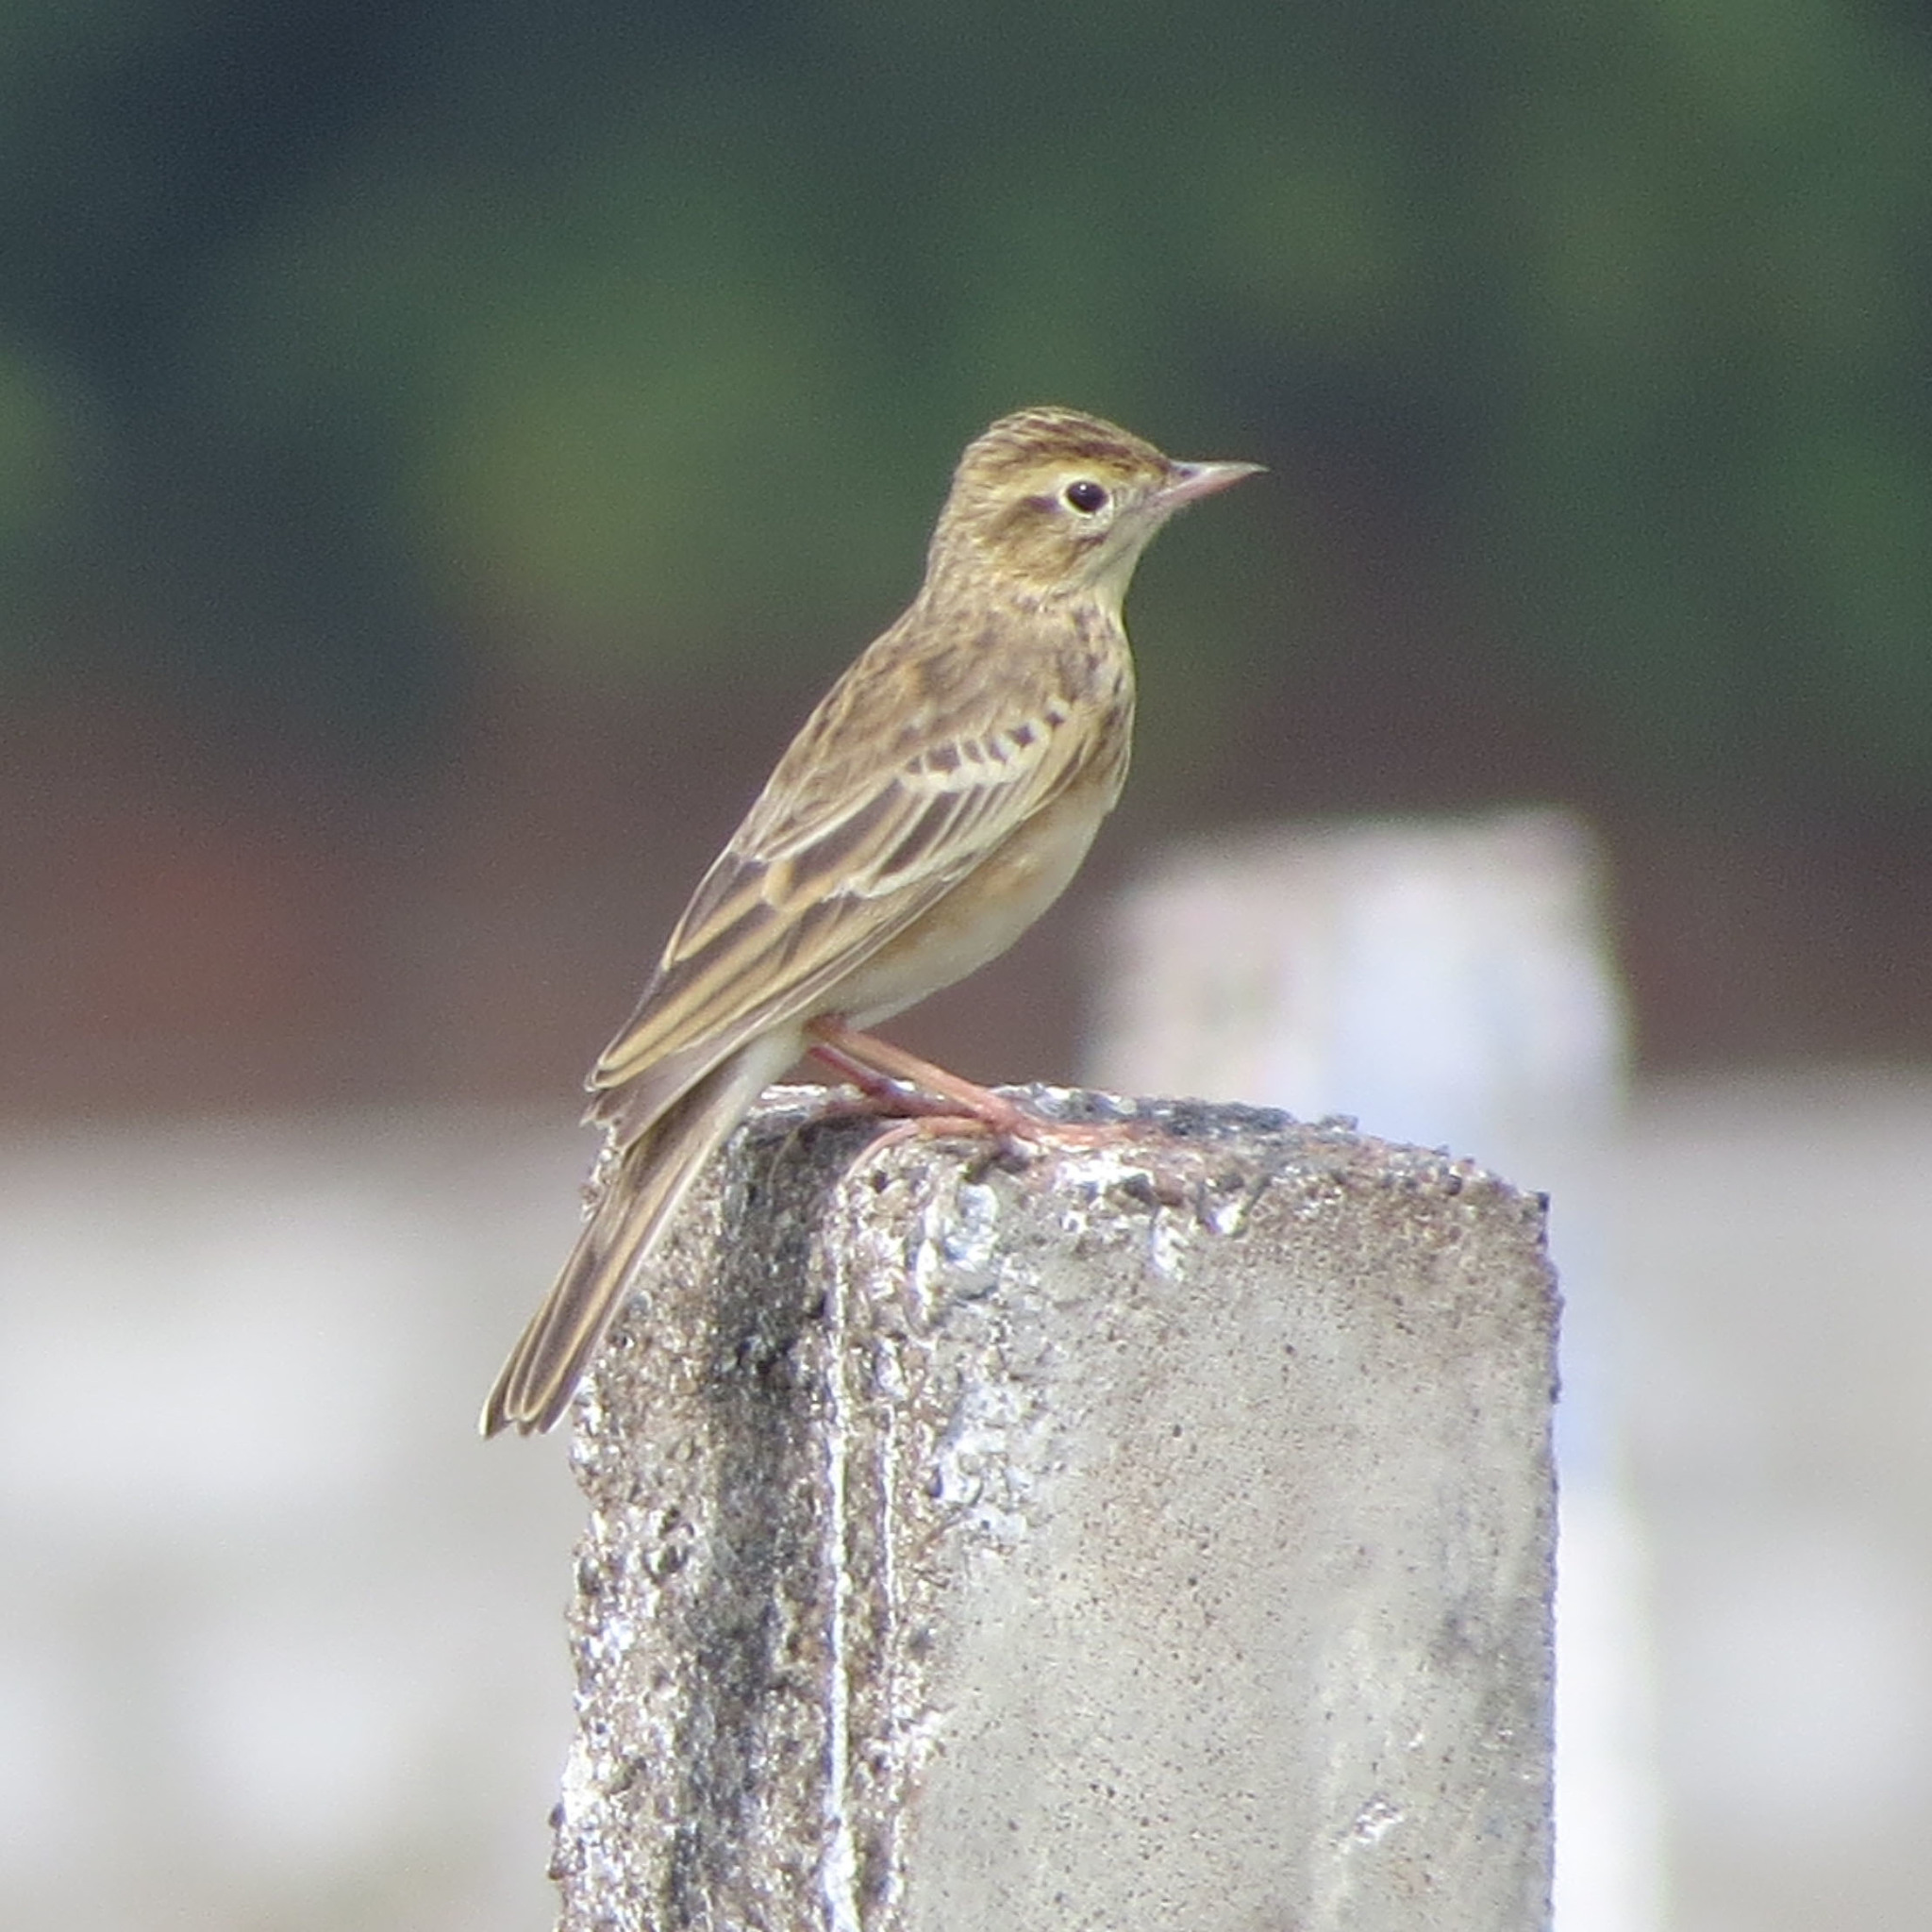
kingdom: Animalia
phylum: Chordata
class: Aves
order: Passeriformes
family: Motacillidae
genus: Anthus
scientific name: Anthus godlewskii
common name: Blyth's pipit
